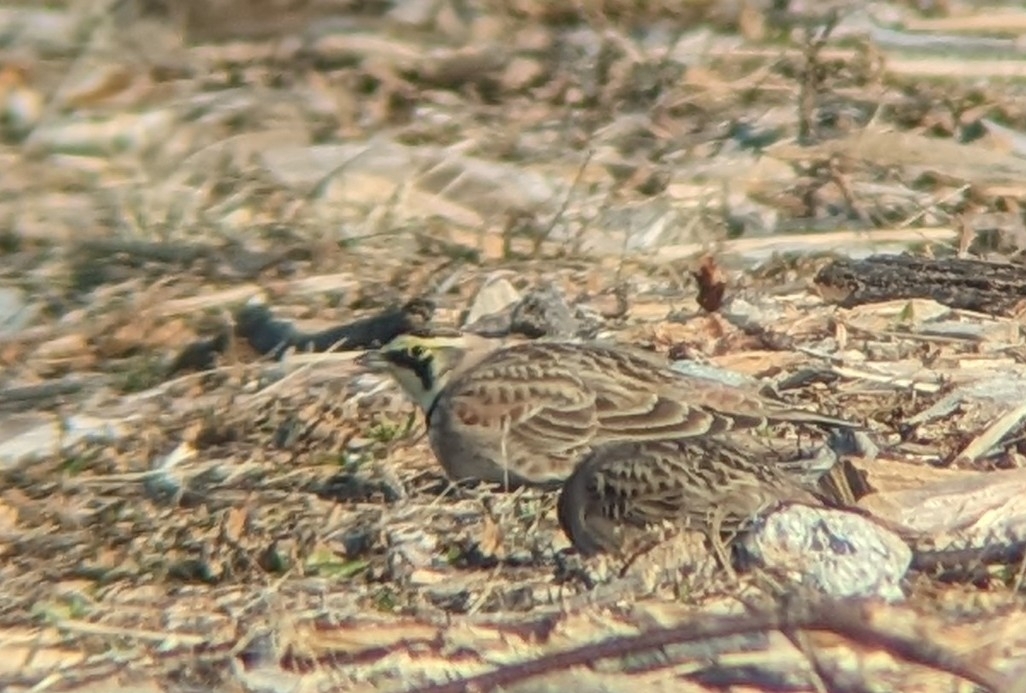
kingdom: Animalia
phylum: Chordata
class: Aves
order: Passeriformes
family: Alaudidae
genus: Eremophila
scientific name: Eremophila alpestris
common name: Horned lark
